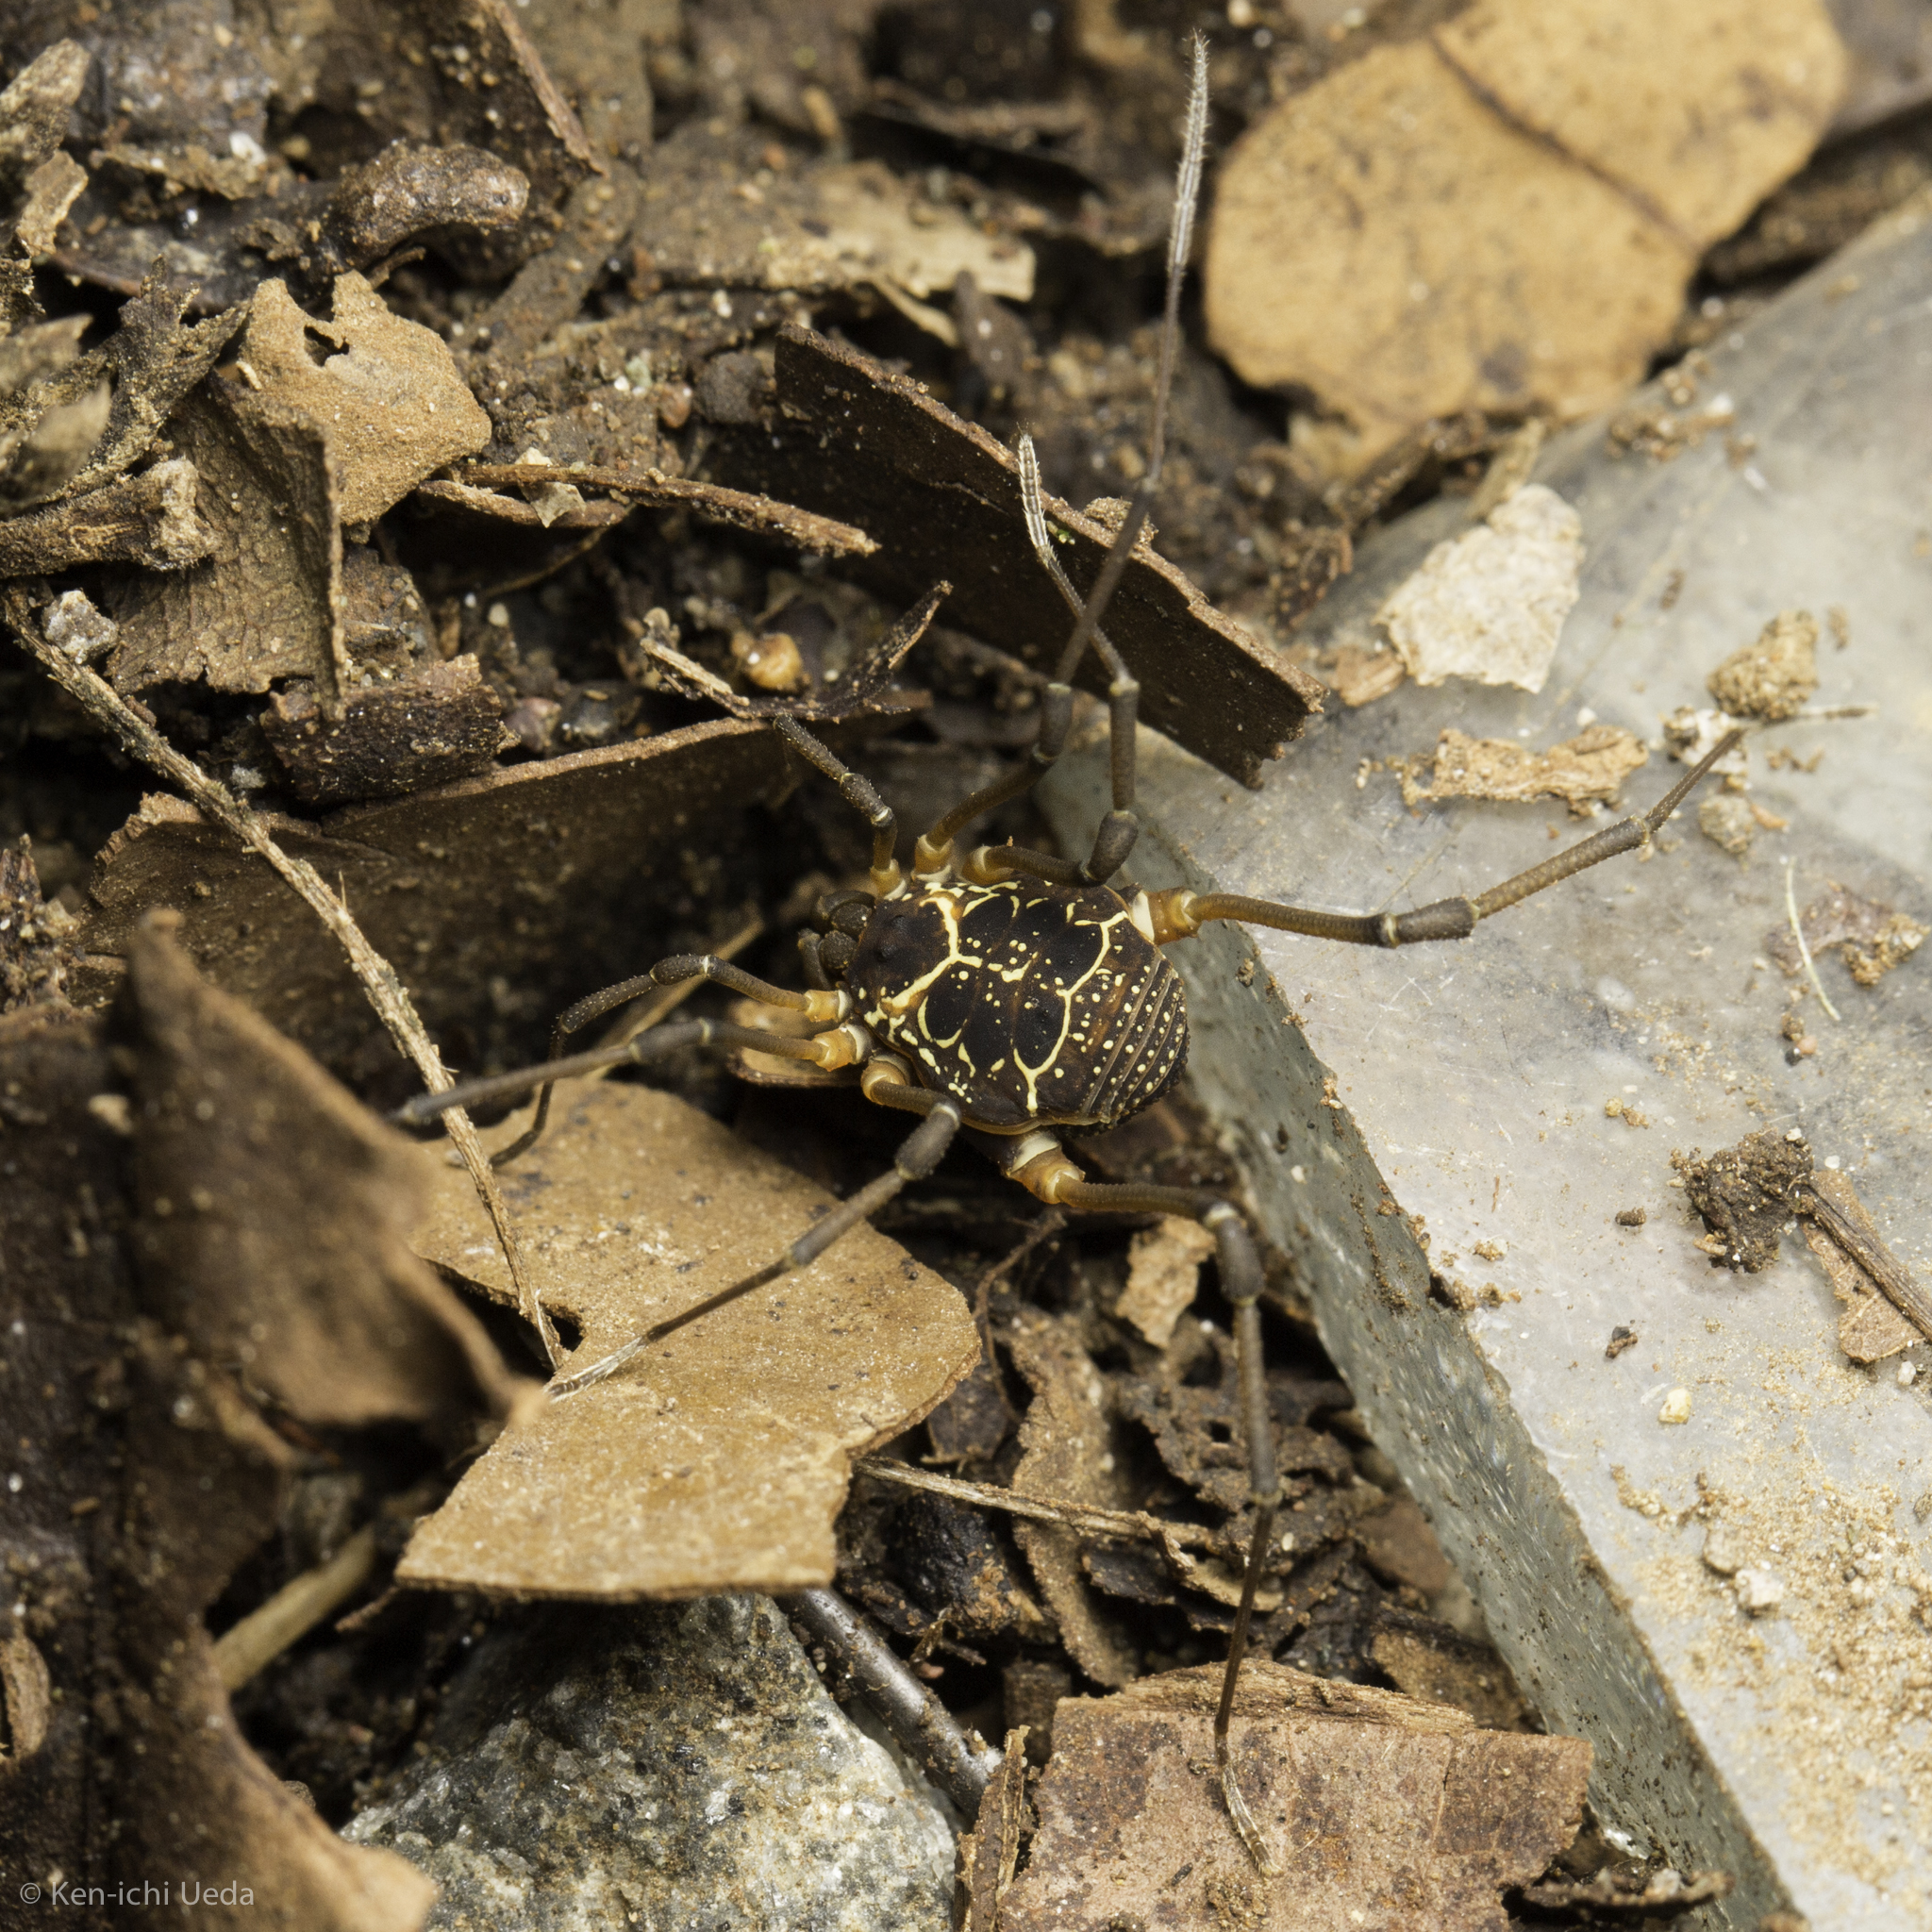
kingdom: Animalia
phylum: Arthropoda
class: Arachnida
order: Opiliones
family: Cosmetidae
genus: Eucynortula
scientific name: Eucynortula albipunctata
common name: Harvestmen
